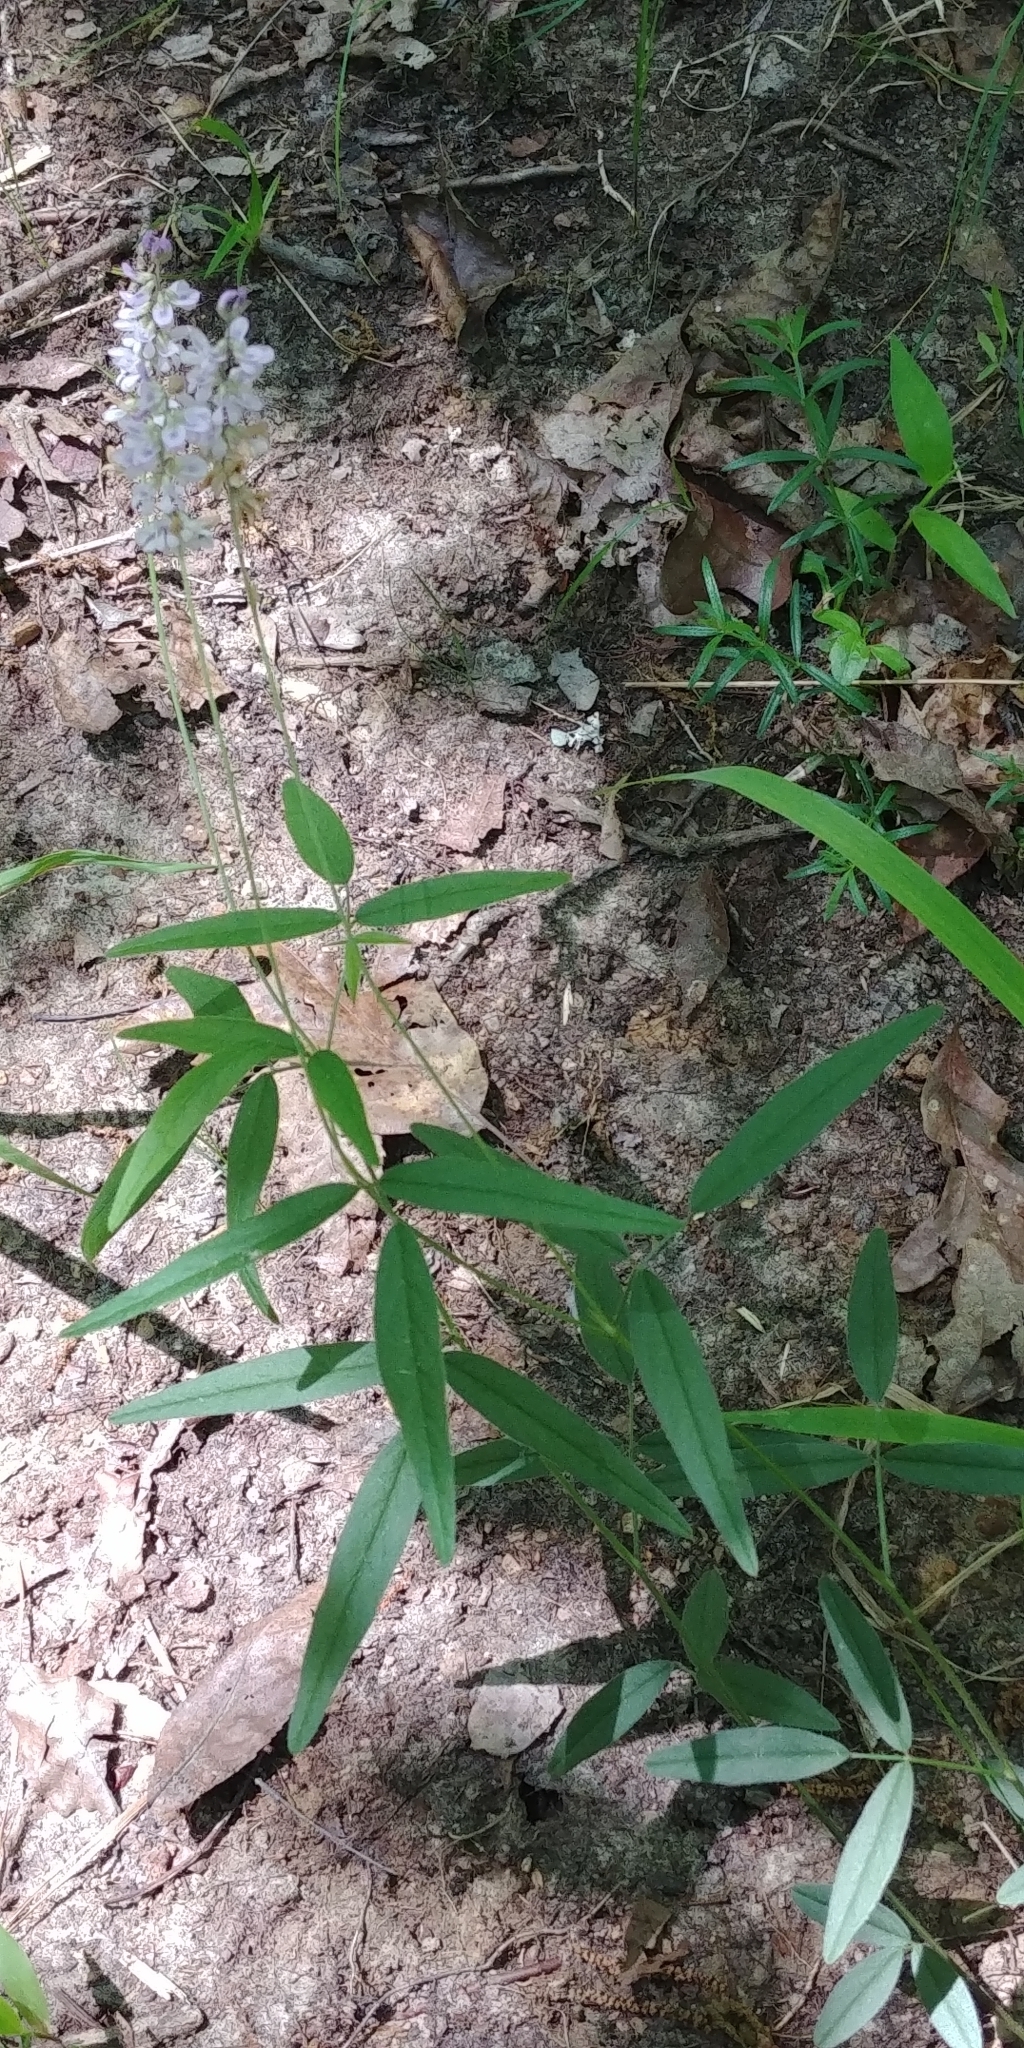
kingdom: Plantae
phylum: Tracheophyta
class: Magnoliopsida
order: Fabales
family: Fabaceae
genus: Orbexilum
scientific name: Orbexilum pedunculatum
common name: Sampson's snakeroot
